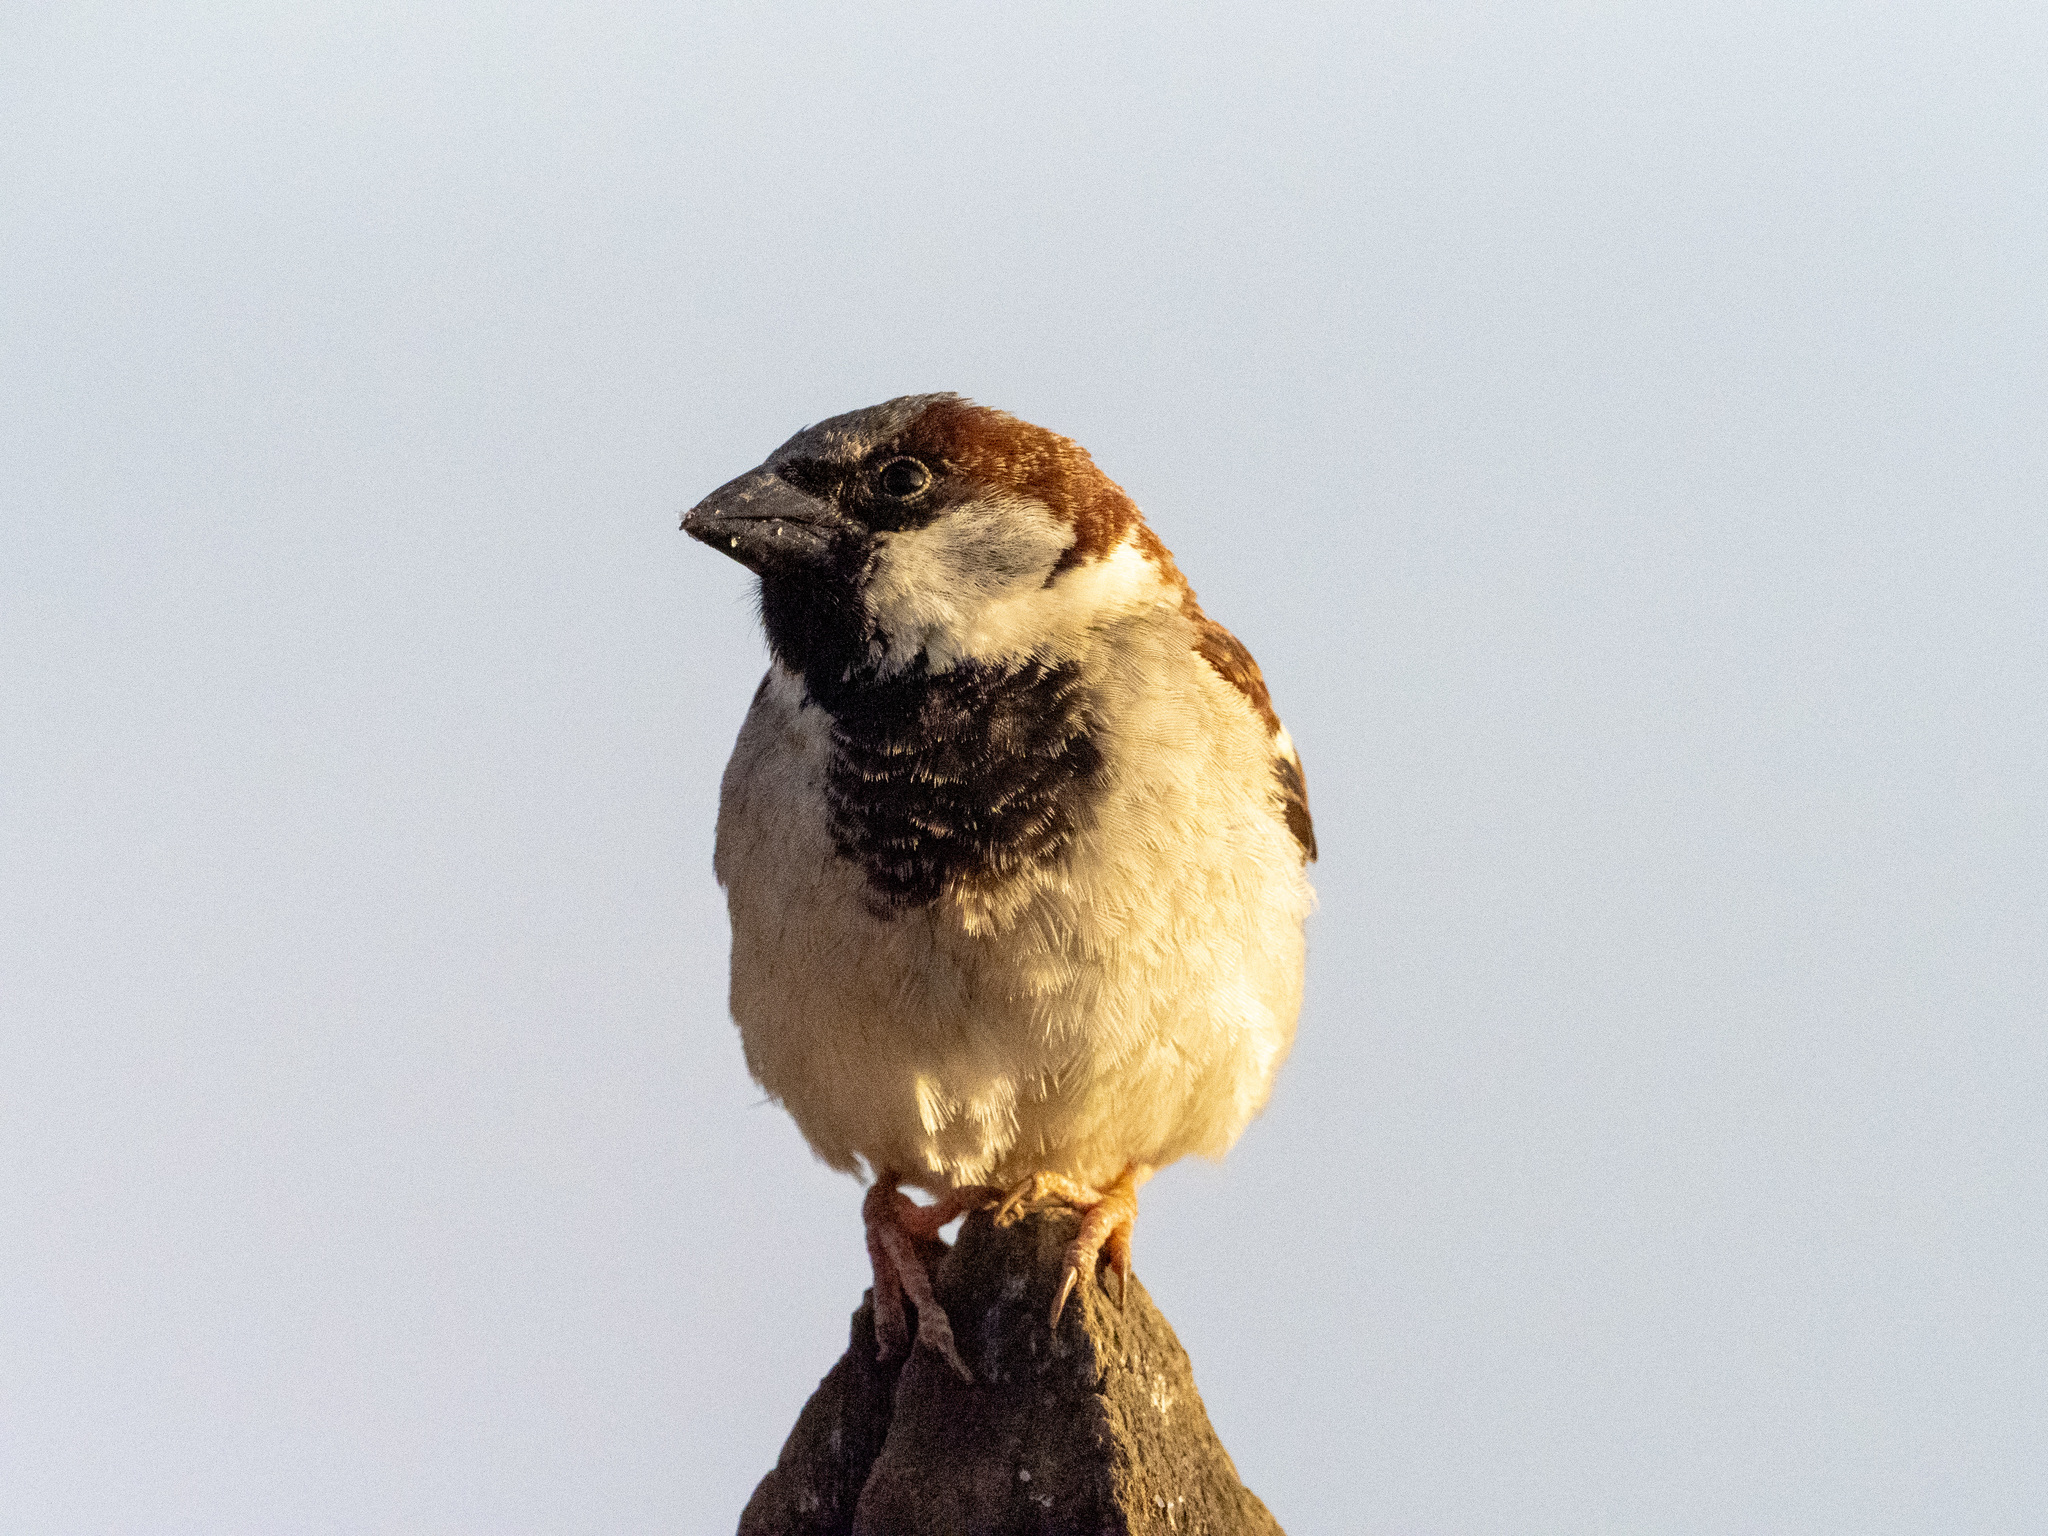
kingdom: Animalia
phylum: Chordata
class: Aves
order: Passeriformes
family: Passeridae
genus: Passer
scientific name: Passer domesticus
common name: House sparrow
